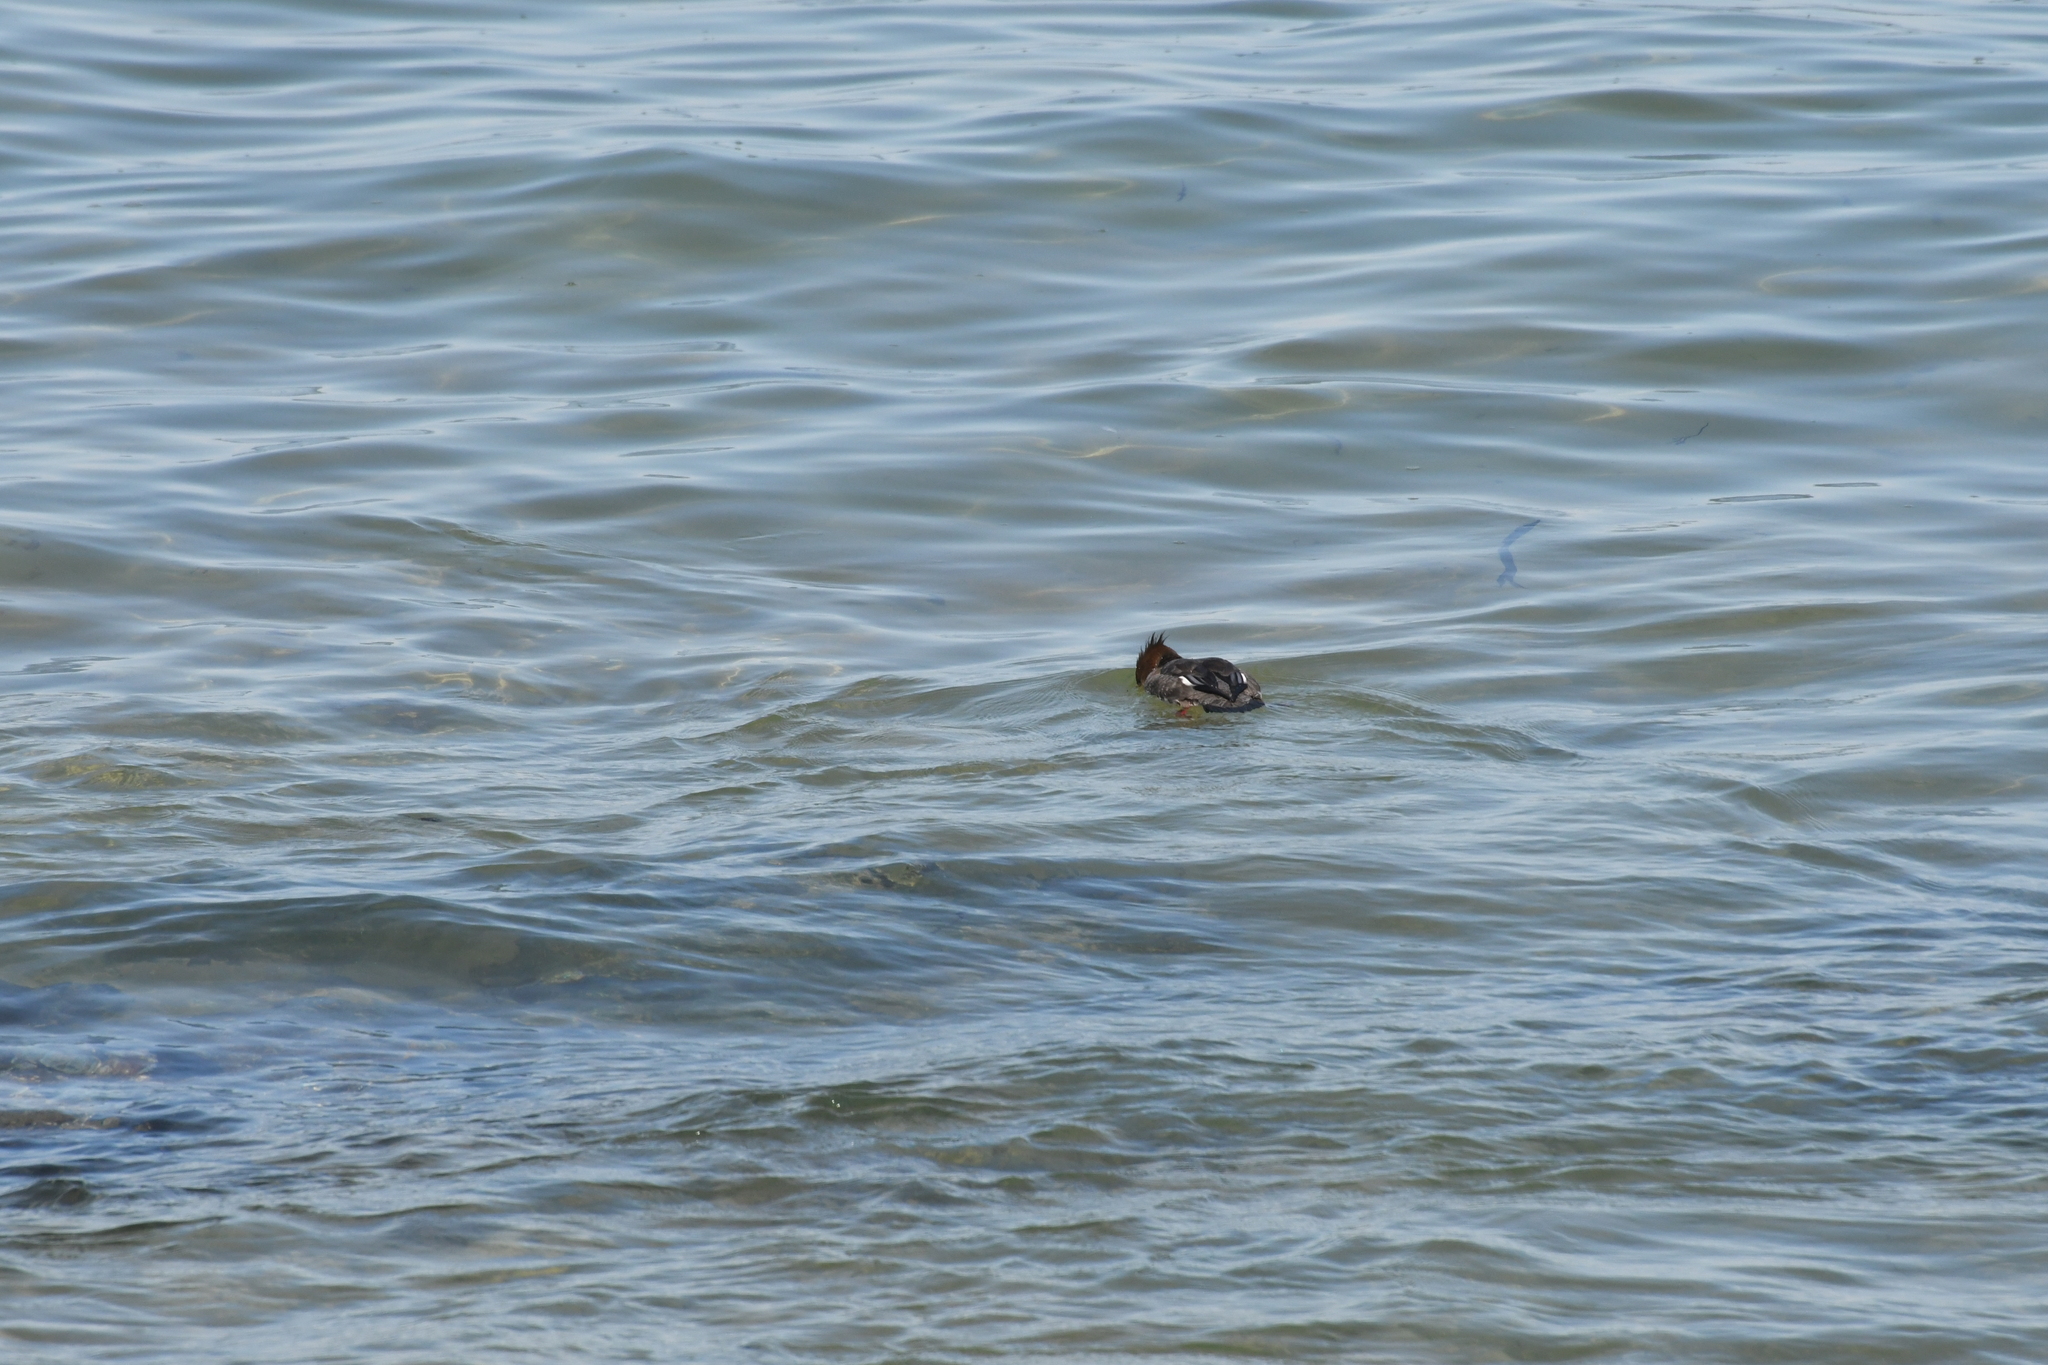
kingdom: Animalia
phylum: Chordata
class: Aves
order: Anseriformes
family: Anatidae
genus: Mergus
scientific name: Mergus serrator
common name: Red-breasted merganser
